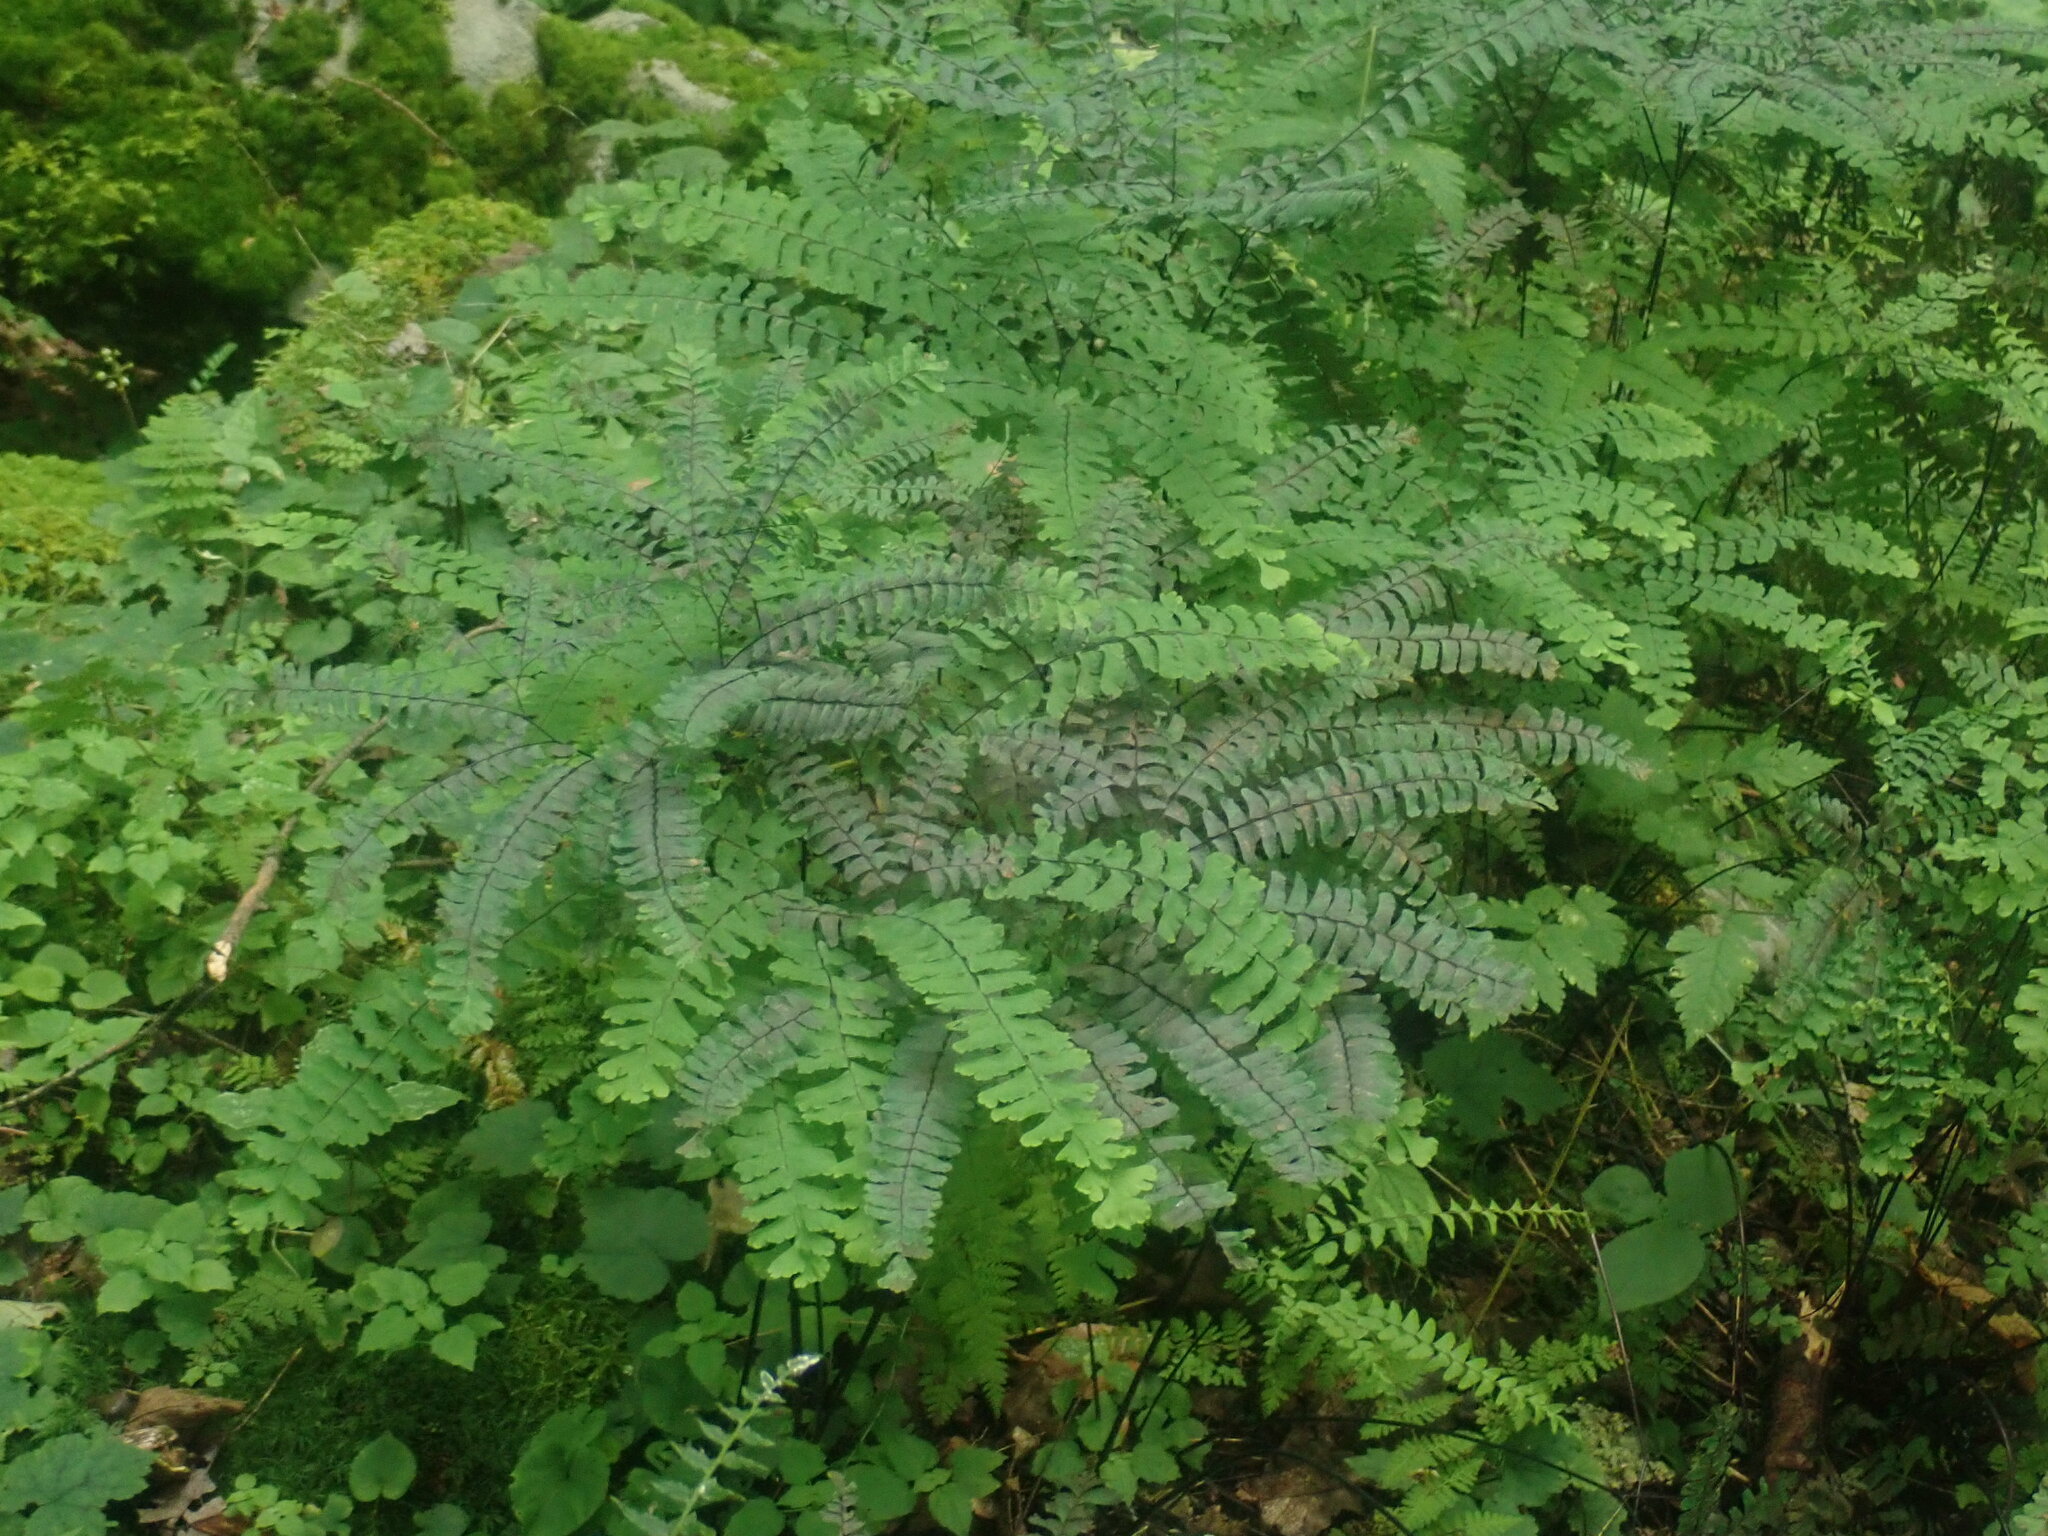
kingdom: Plantae
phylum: Tracheophyta
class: Polypodiopsida
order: Polypodiales
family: Pteridaceae
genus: Adiantum
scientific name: Adiantum pedatum
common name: Five-finger fern
